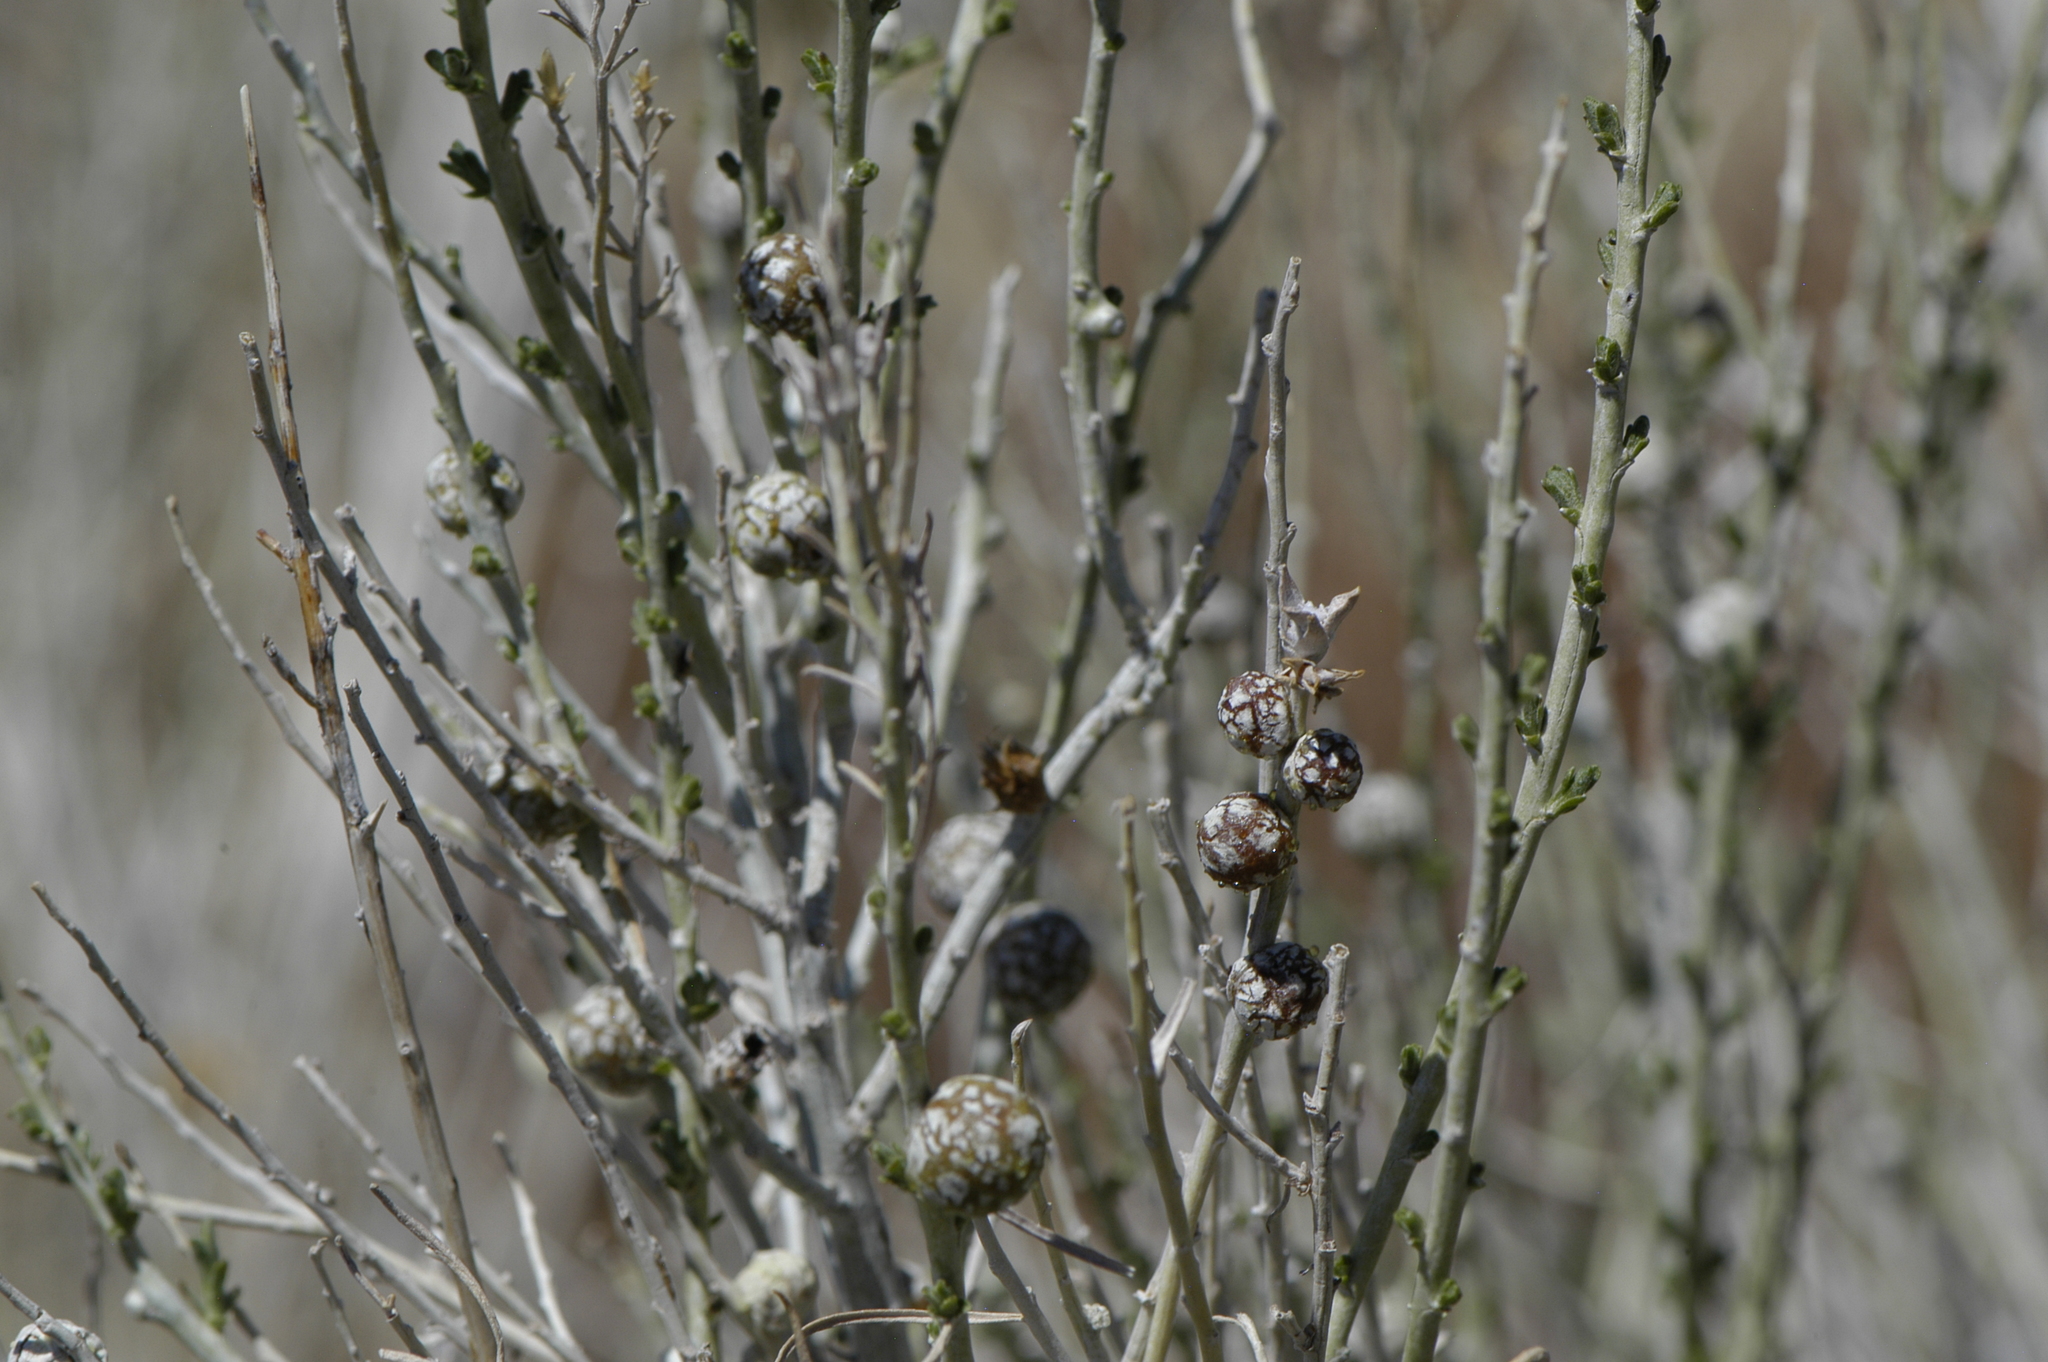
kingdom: Animalia
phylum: Arthropoda
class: Insecta
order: Diptera
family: Tephritidae
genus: Aciurina
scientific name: Aciurina trixa
